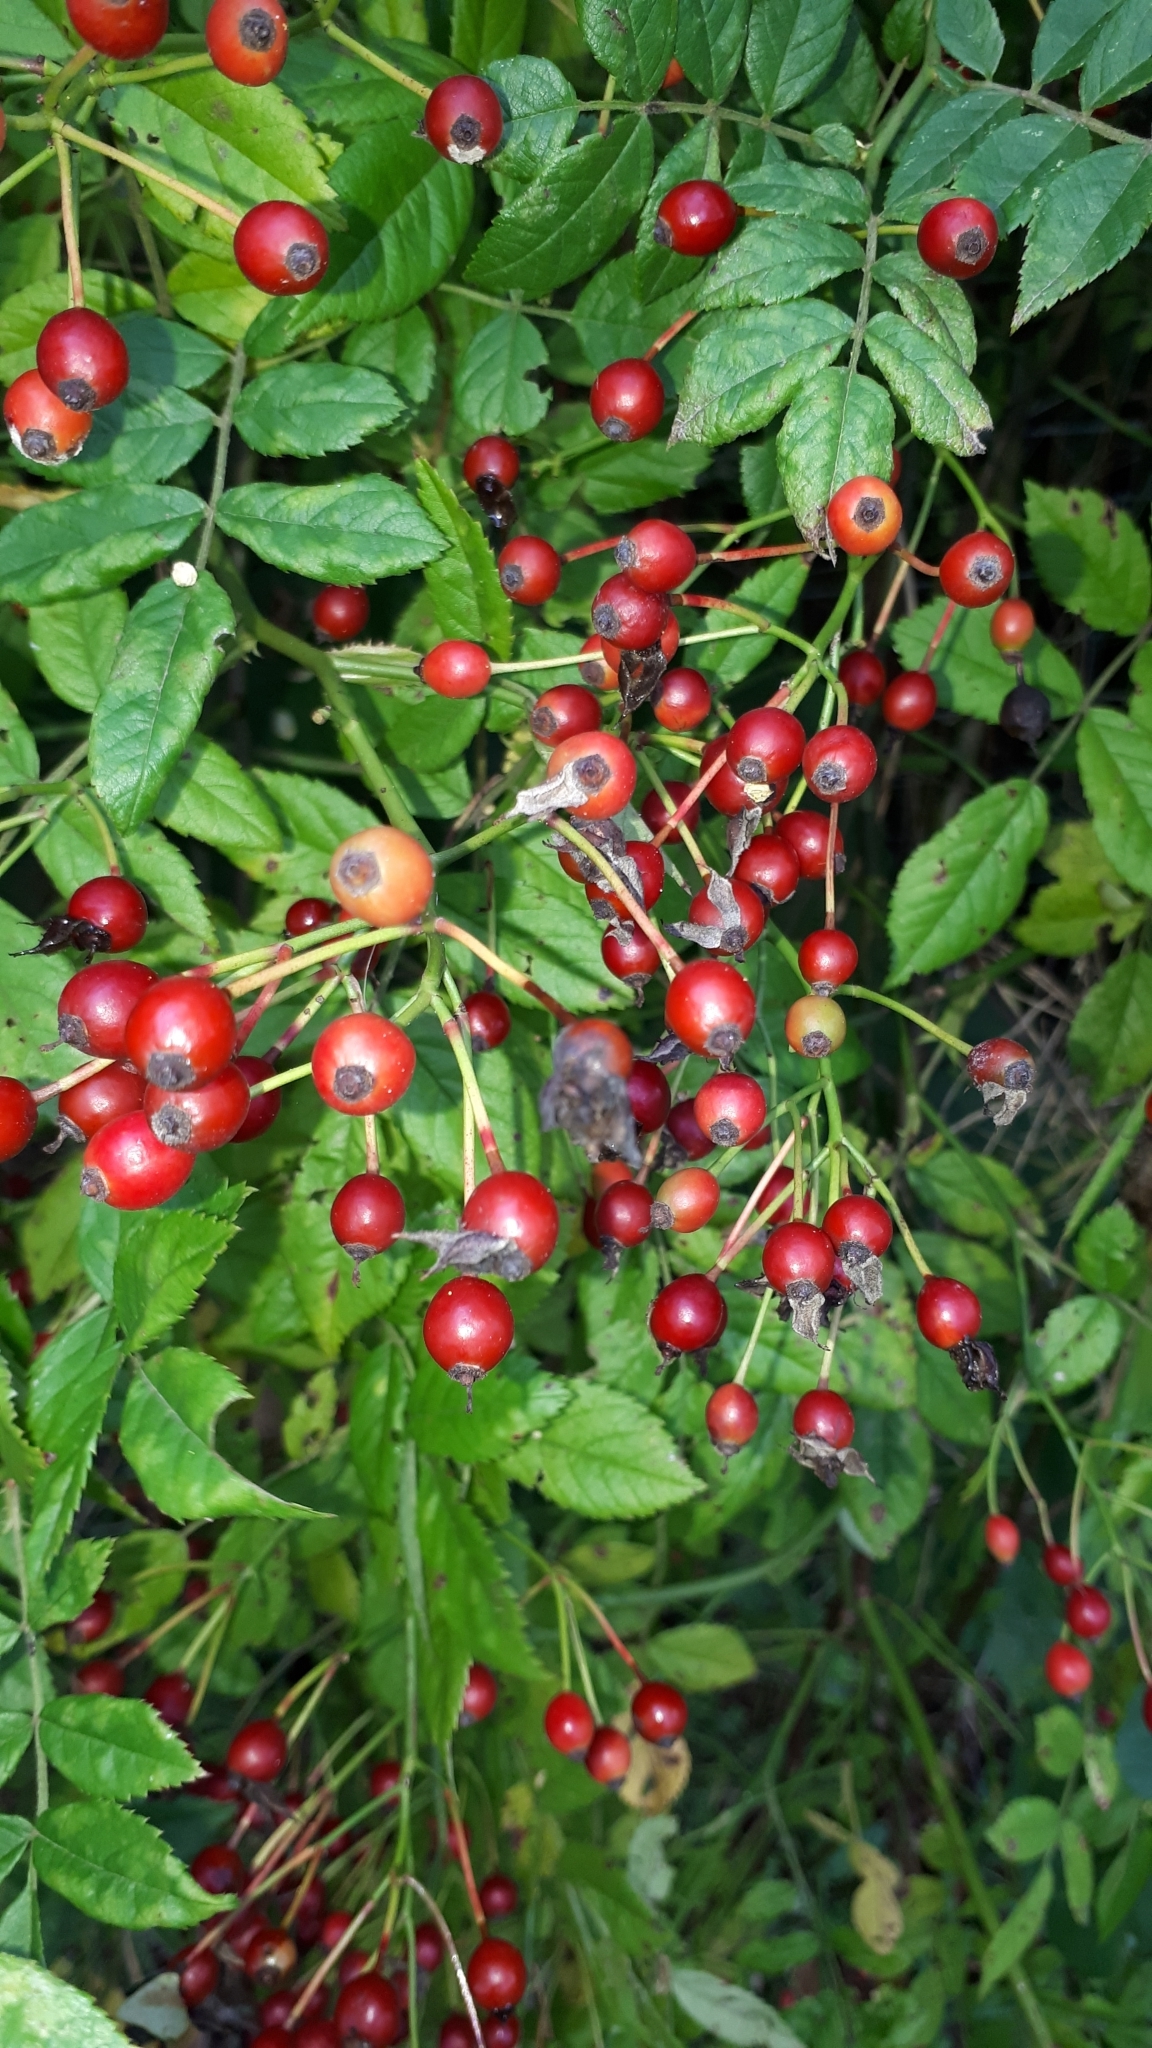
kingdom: Plantae
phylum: Tracheophyta
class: Magnoliopsida
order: Rosales
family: Rosaceae
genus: Rosa
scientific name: Rosa multiflora
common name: Multiflora rose
